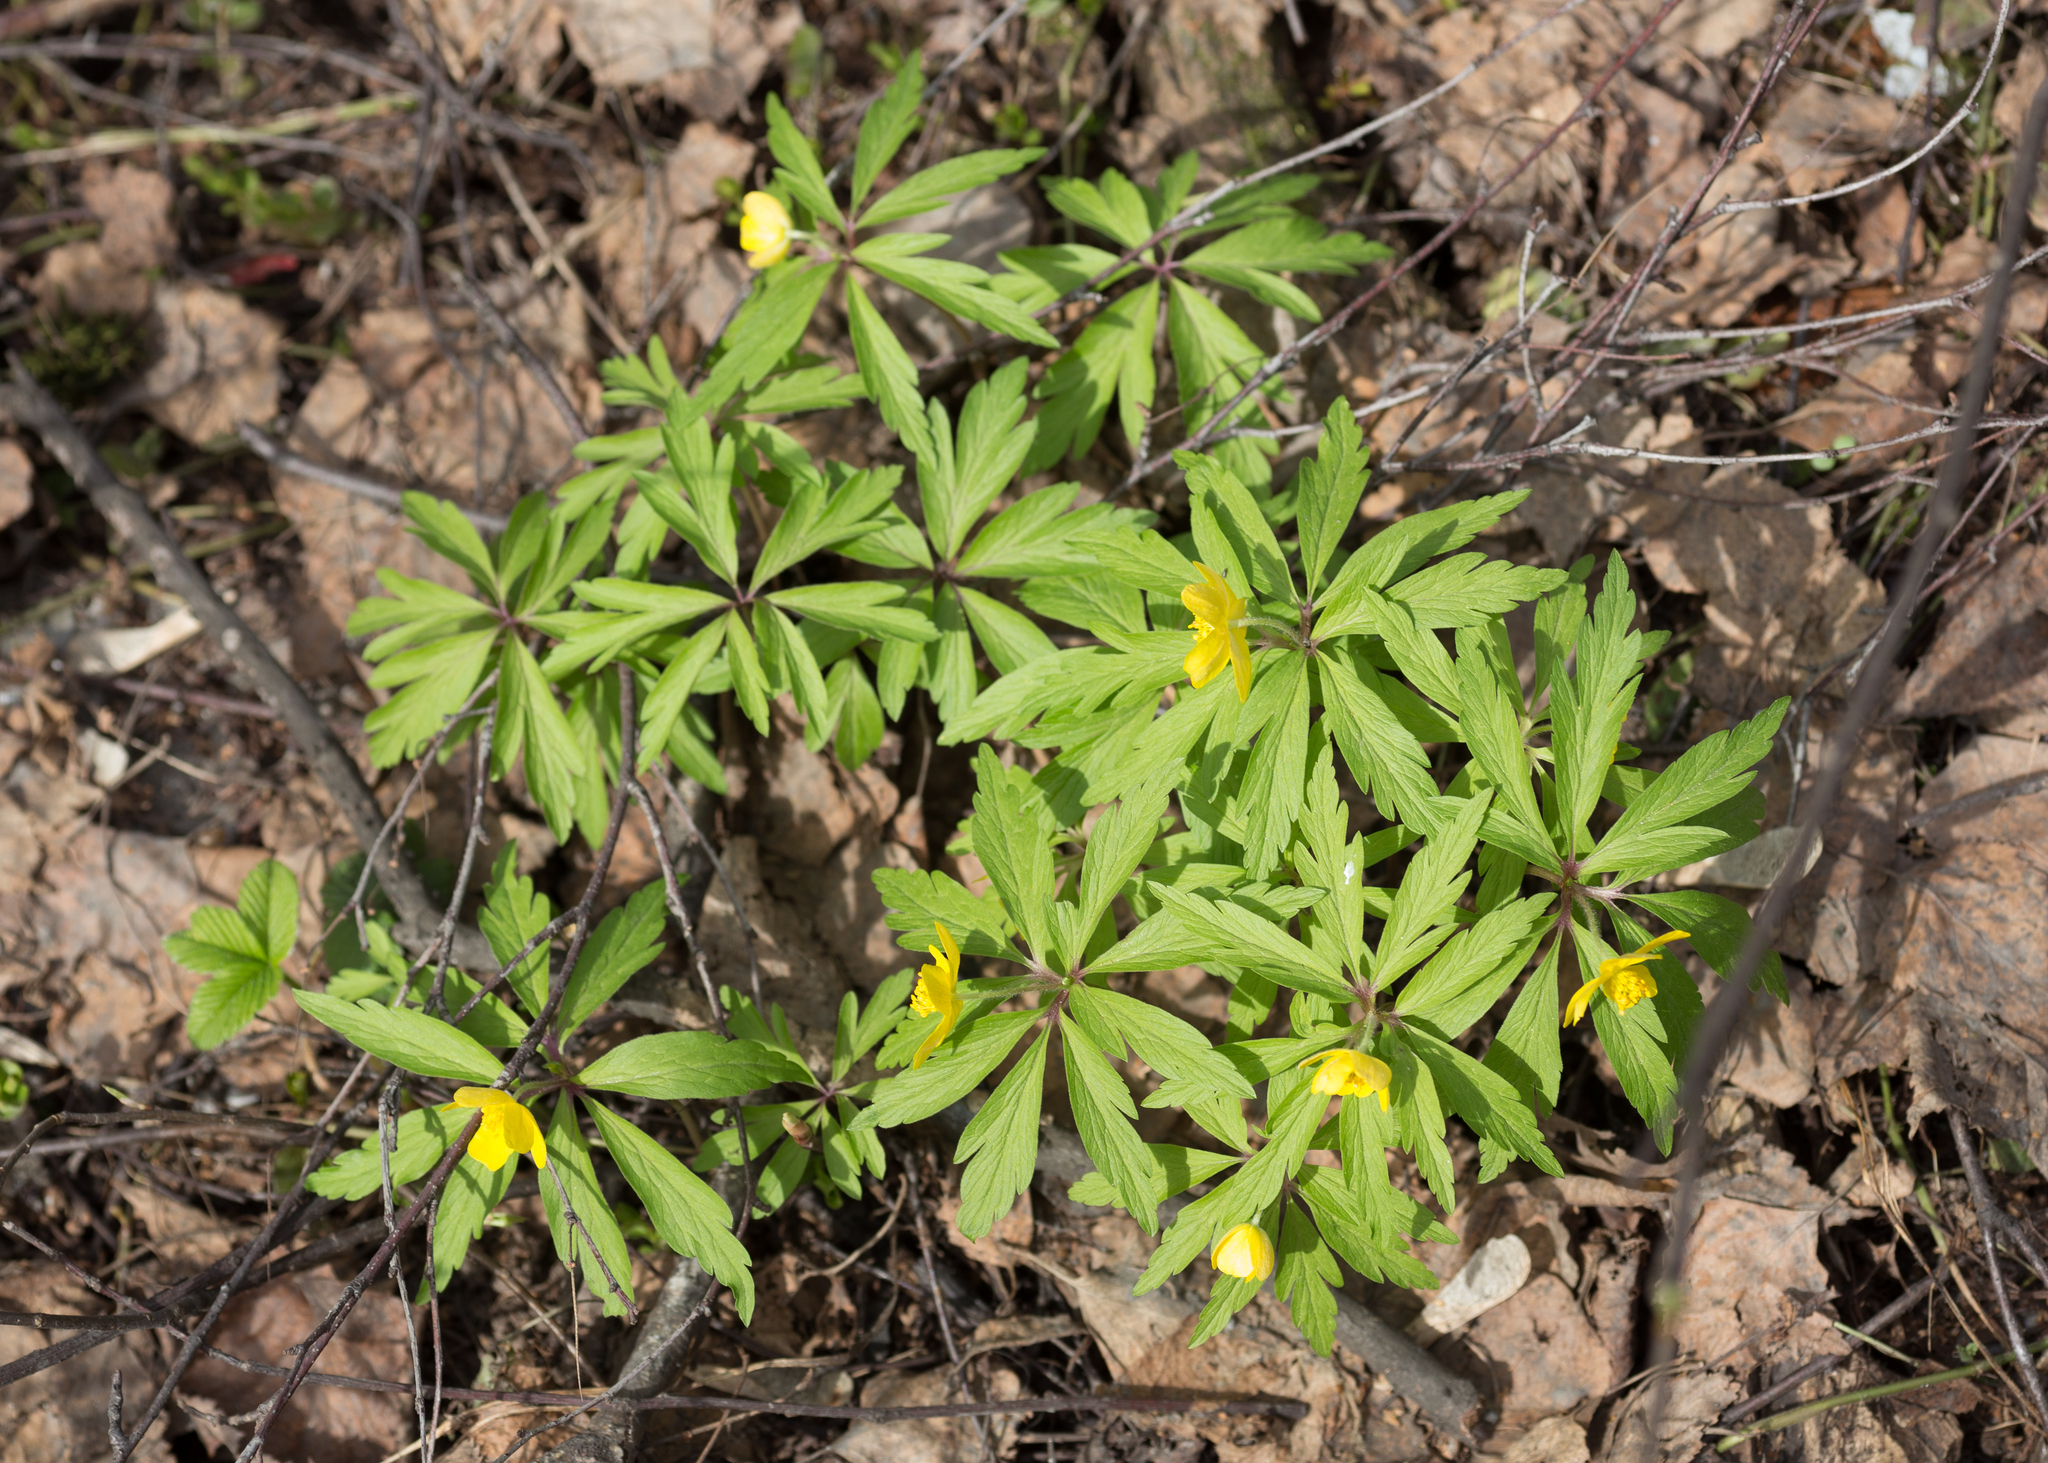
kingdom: Plantae
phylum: Tracheophyta
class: Magnoliopsida
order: Ranunculales
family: Ranunculaceae
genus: Anemone
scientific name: Anemone ranunculoides
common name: Yellow anemone
